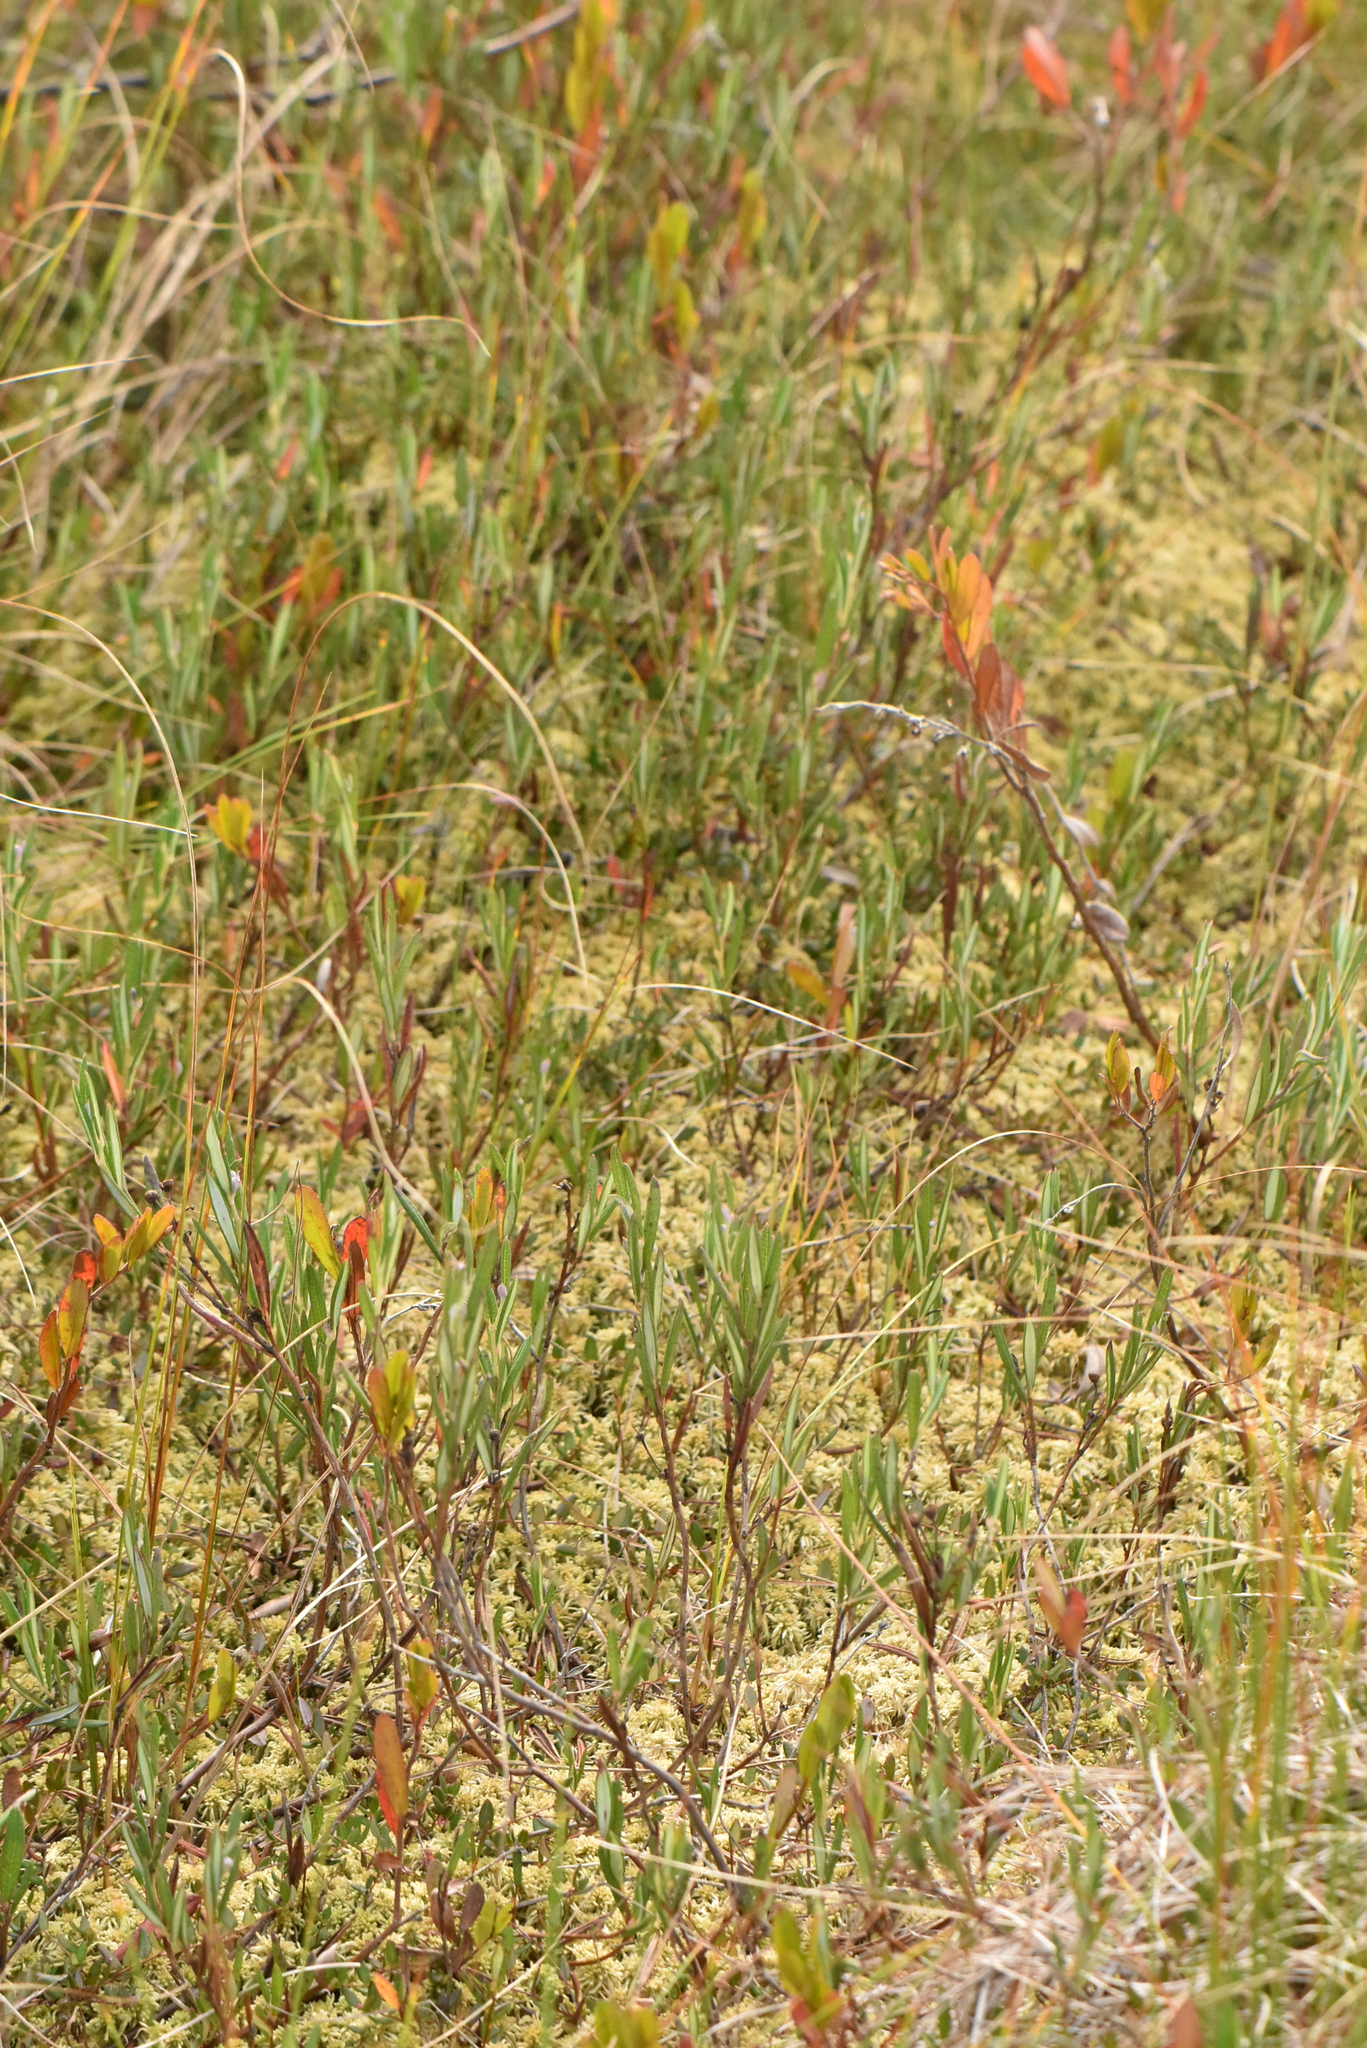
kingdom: Plantae
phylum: Tracheophyta
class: Magnoliopsida
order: Ericales
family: Ericaceae
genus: Andromeda
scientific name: Andromeda polifolia
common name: Bog-rosemary
